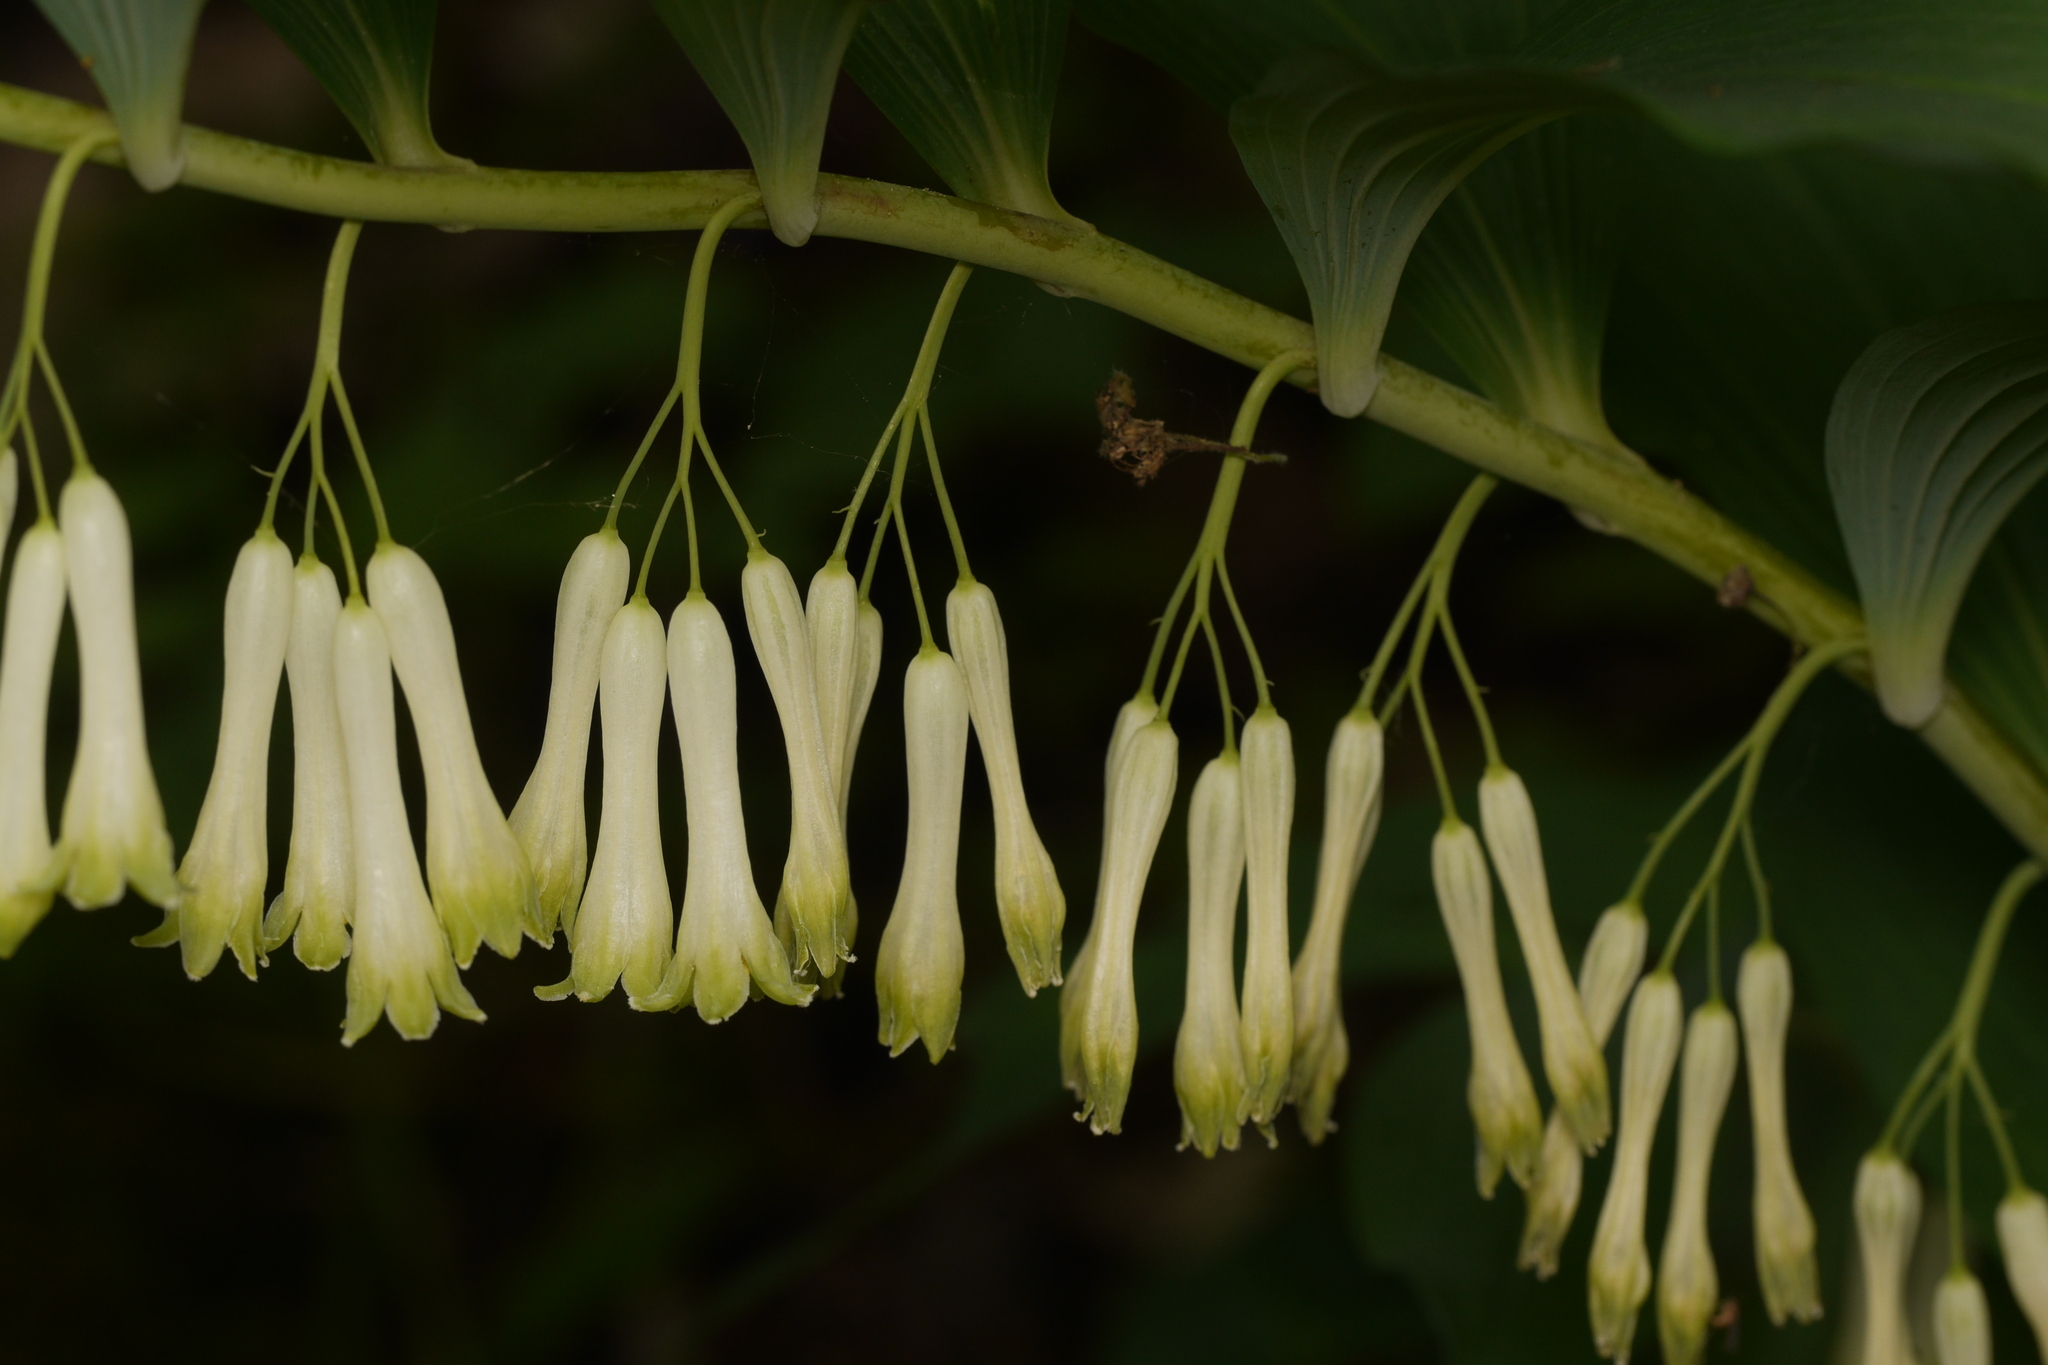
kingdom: Plantae
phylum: Tracheophyta
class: Liliopsida
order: Asparagales
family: Asparagaceae
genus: Polygonatum
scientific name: Polygonatum multiflorum
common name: Solomon's-seal
